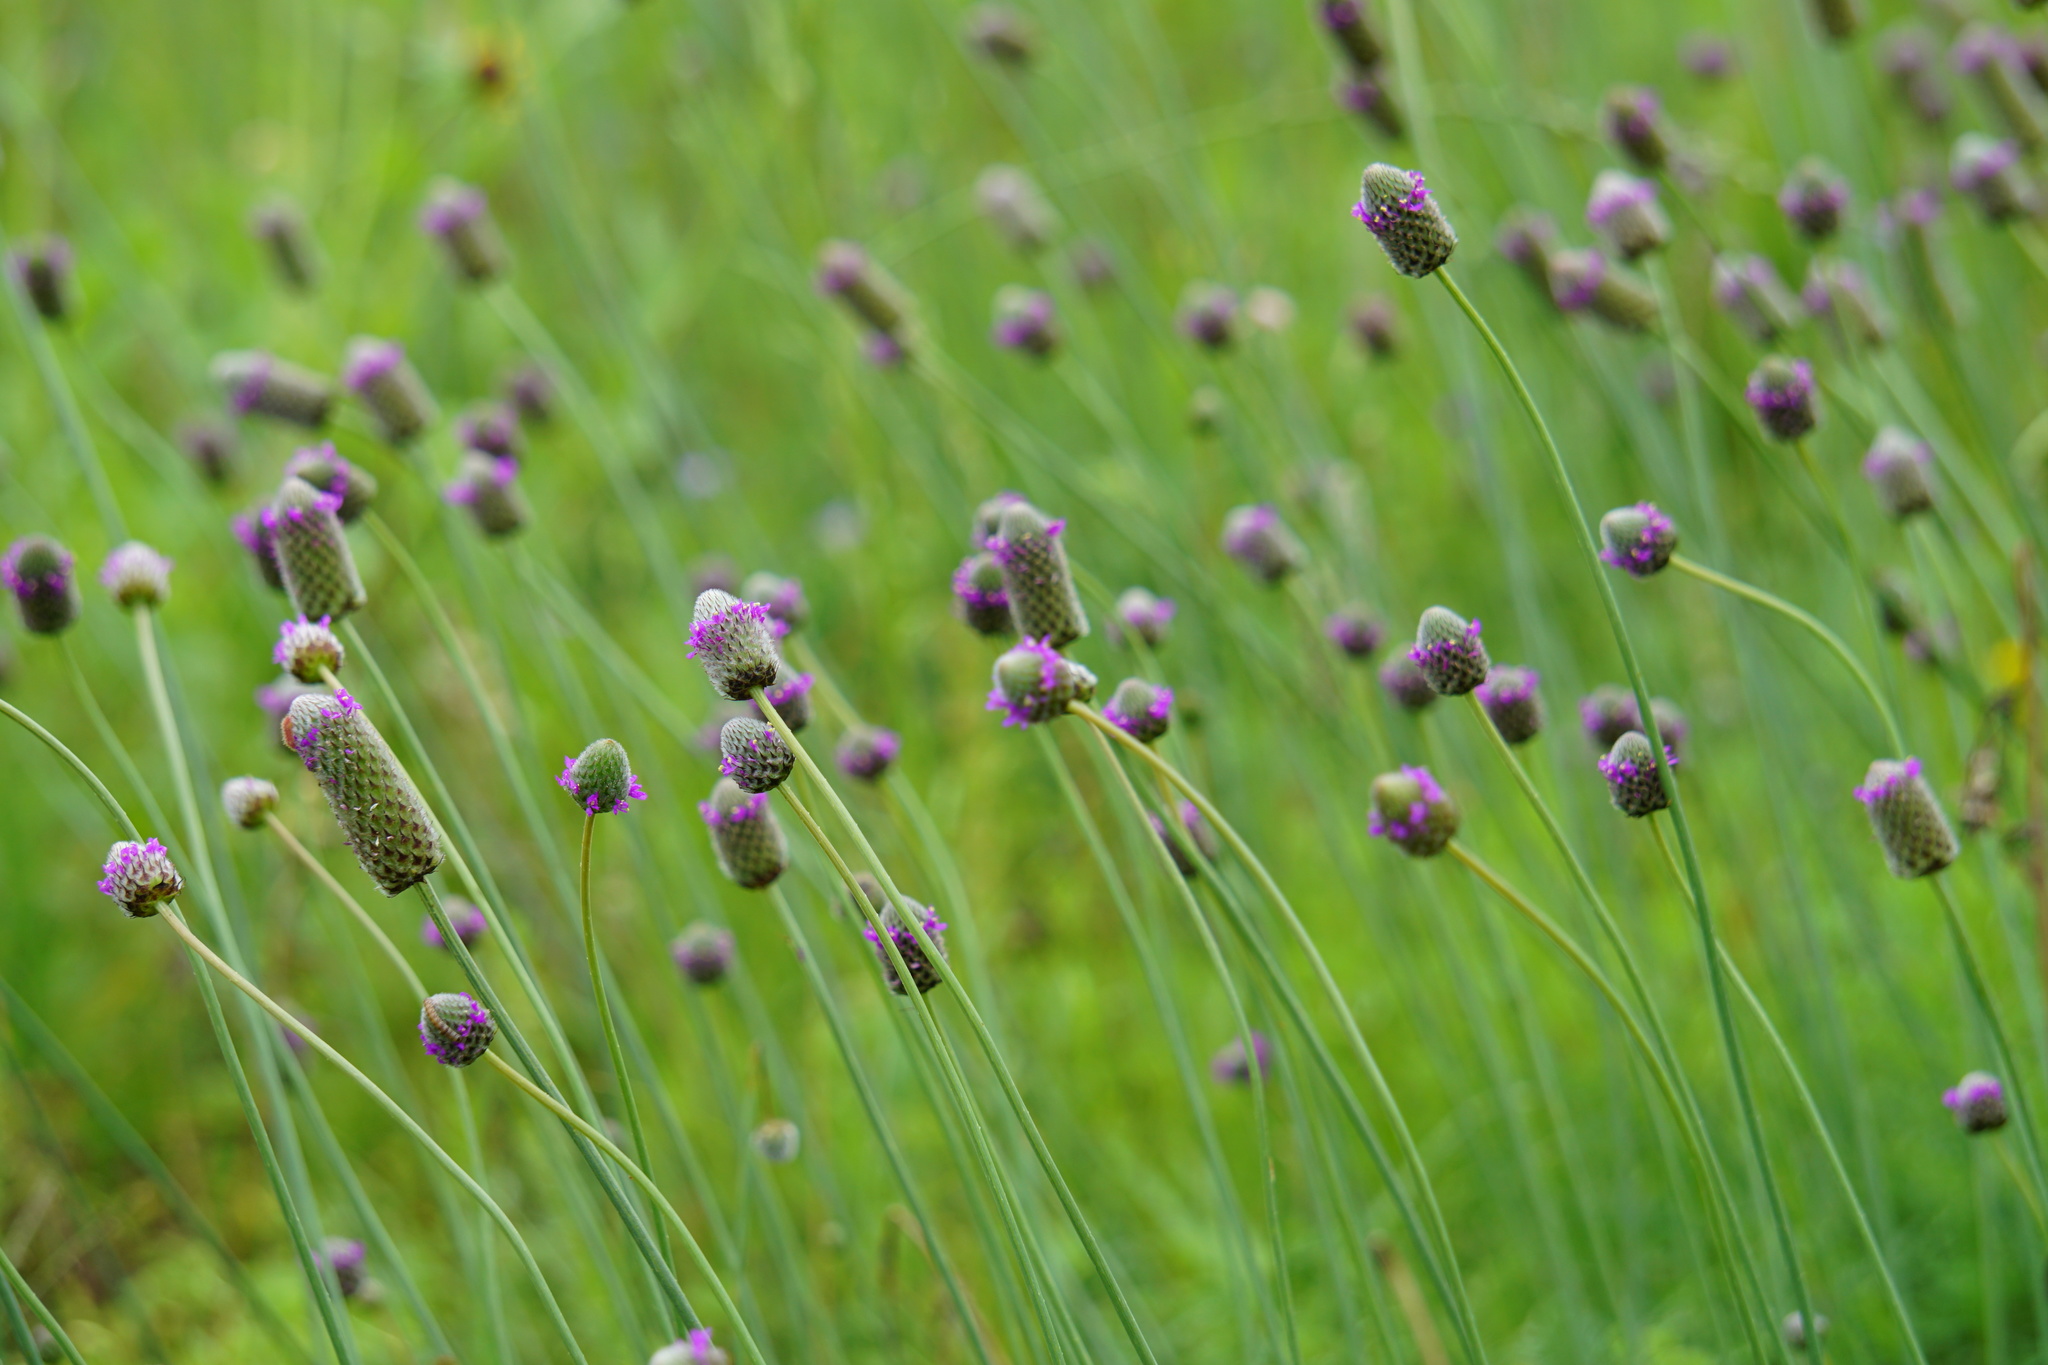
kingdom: Plantae
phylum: Tracheophyta
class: Magnoliopsida
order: Fabales
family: Fabaceae
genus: Dalea
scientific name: Dalea emarginata
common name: Wedgeleaf prairie clover
